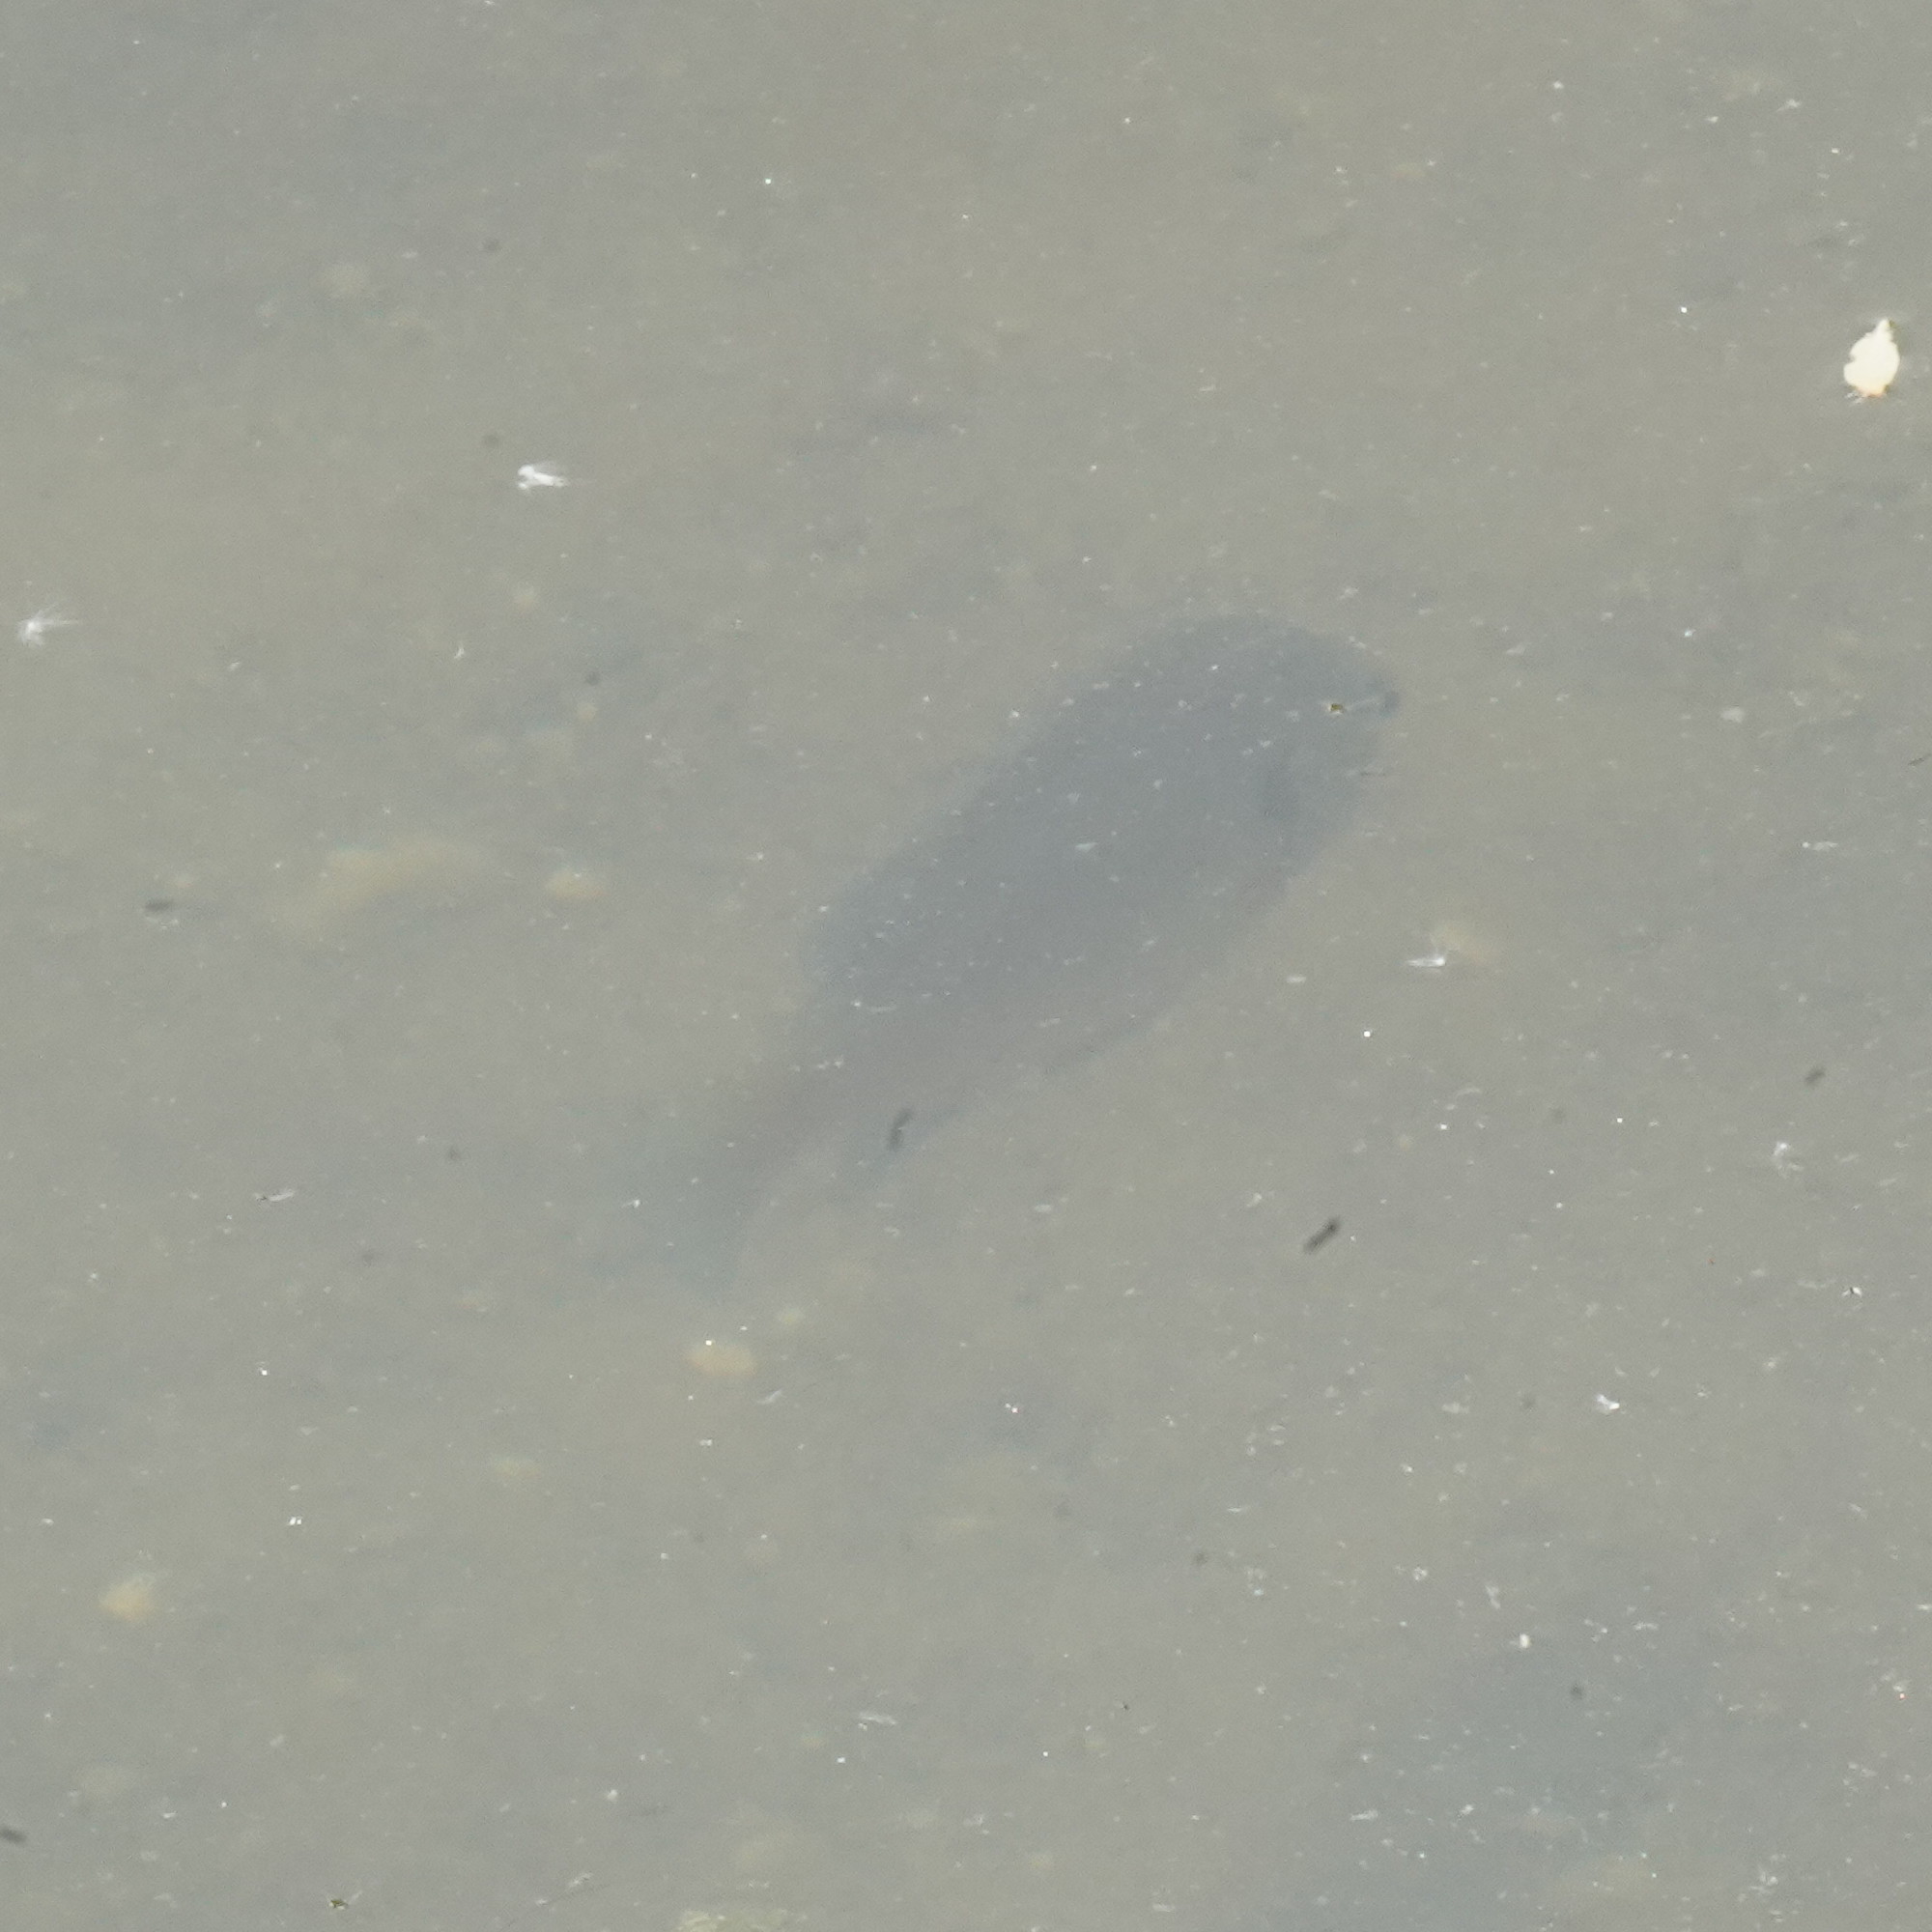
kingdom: Animalia
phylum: Chordata
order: Perciformes
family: Centrarchidae
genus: Lepomis
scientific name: Lepomis macrochirus
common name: Bluegill
